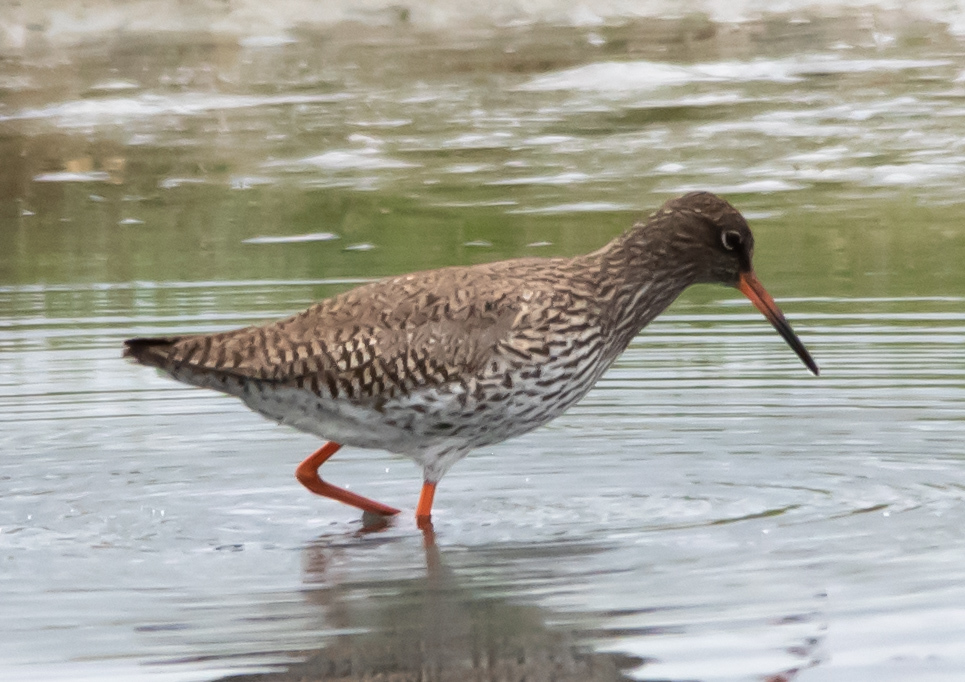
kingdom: Animalia
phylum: Chordata
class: Aves
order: Charadriiformes
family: Scolopacidae
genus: Tringa
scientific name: Tringa totanus
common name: Common redshank
